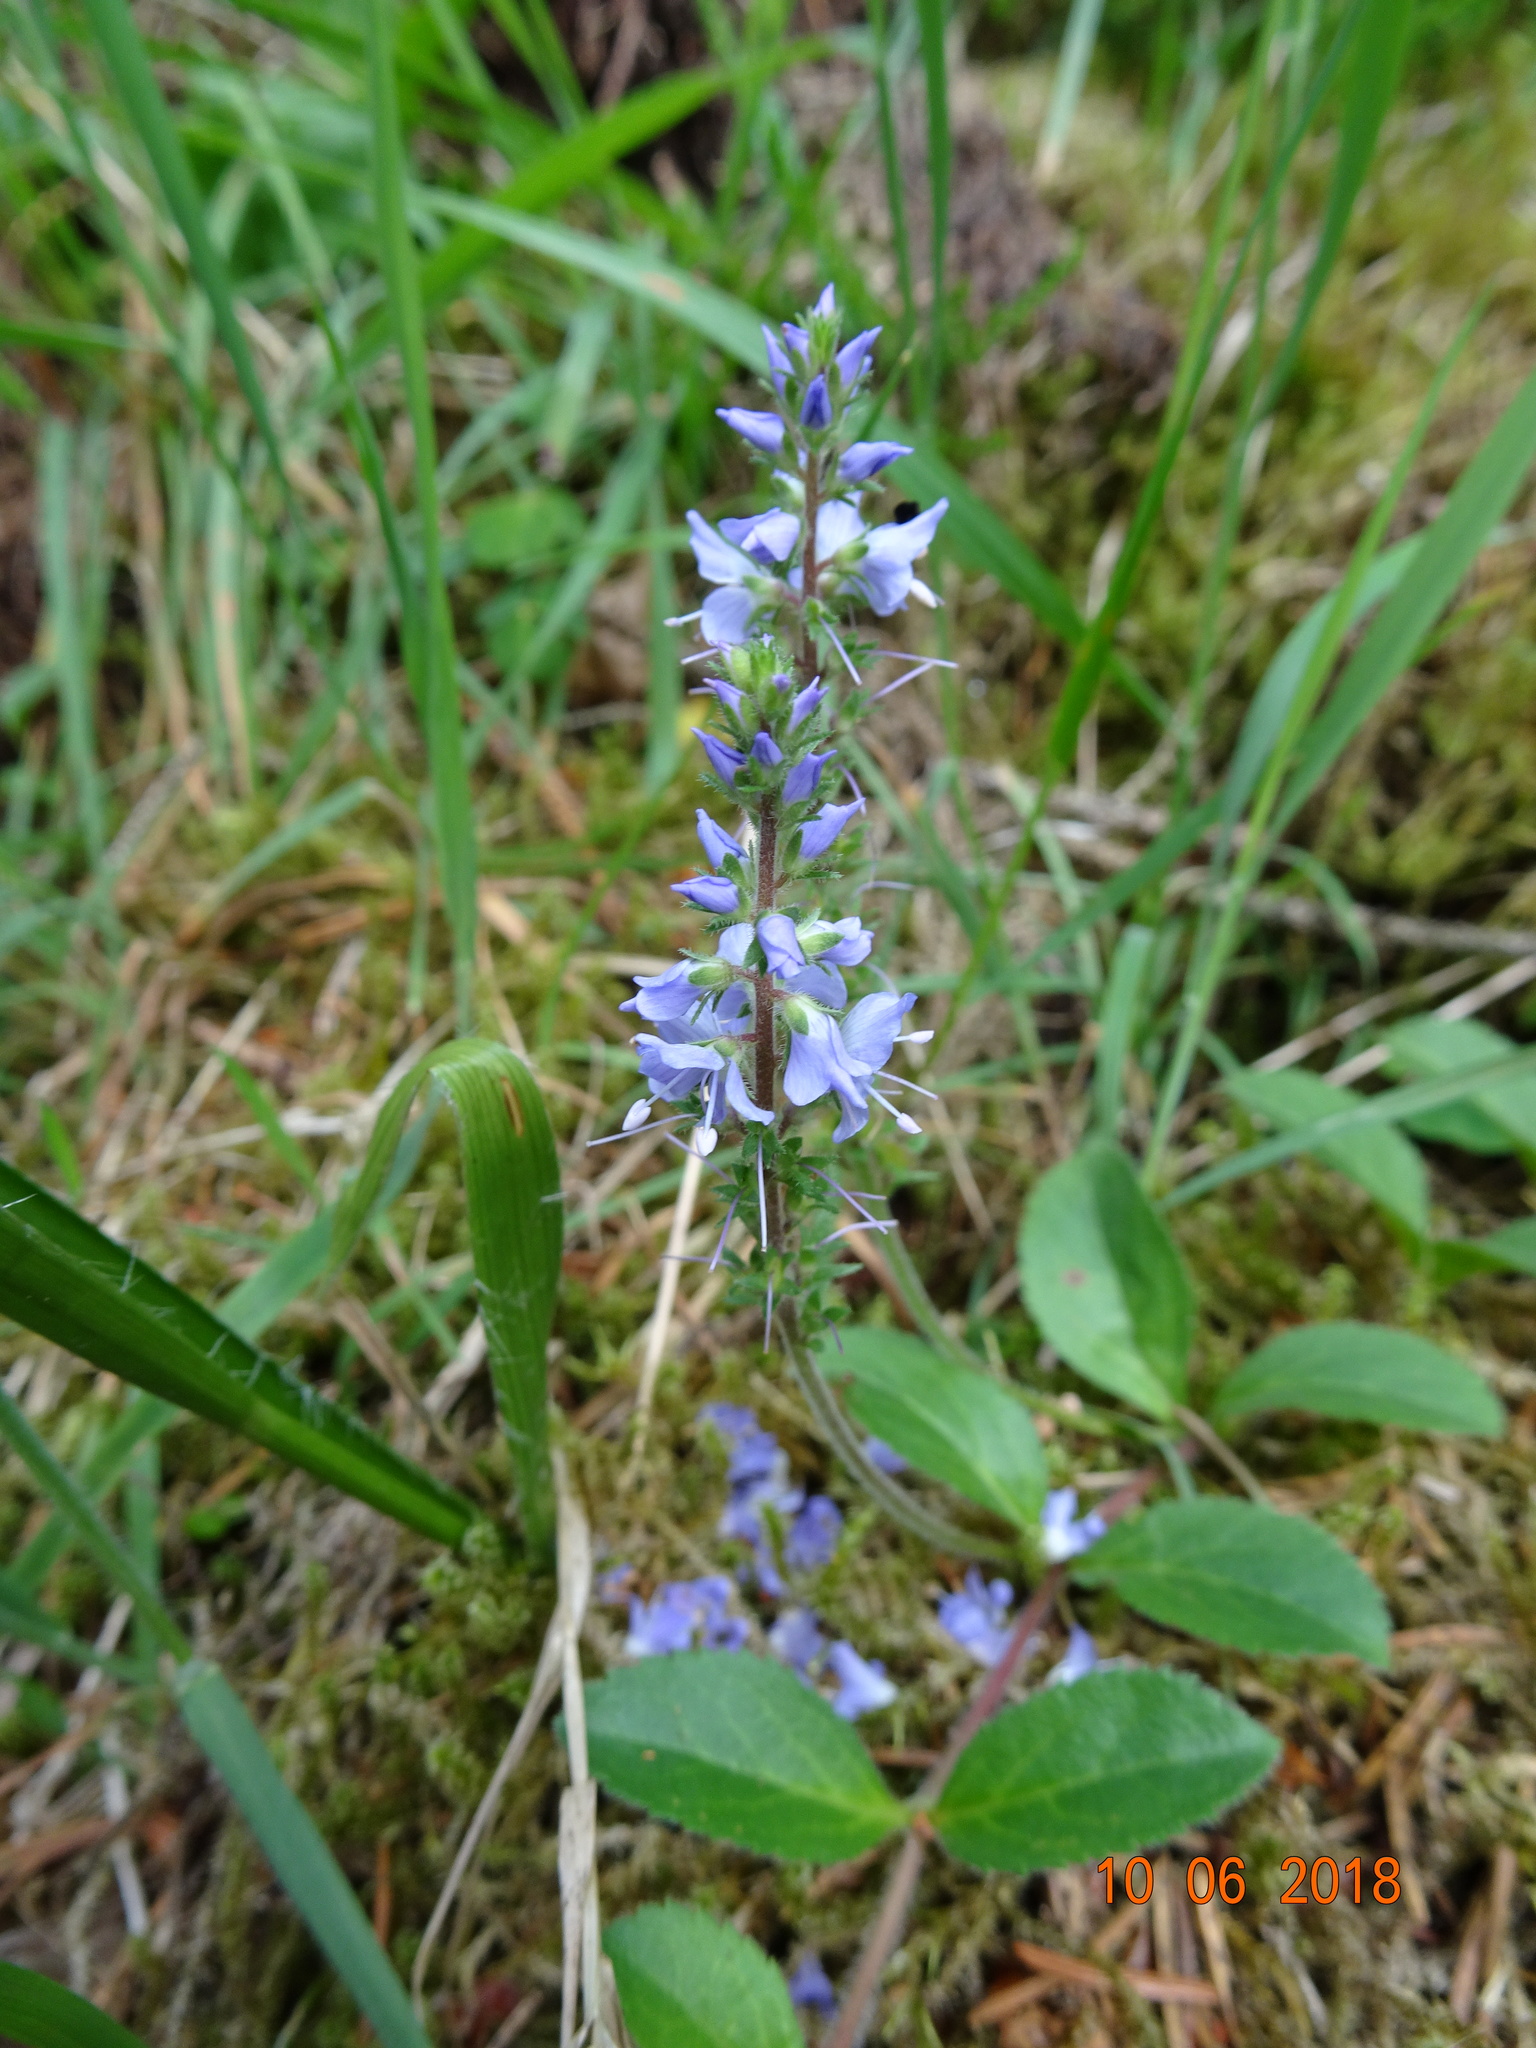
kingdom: Plantae
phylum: Tracheophyta
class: Magnoliopsida
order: Lamiales
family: Plantaginaceae
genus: Veronica
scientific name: Veronica officinalis
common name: Common speedwell
